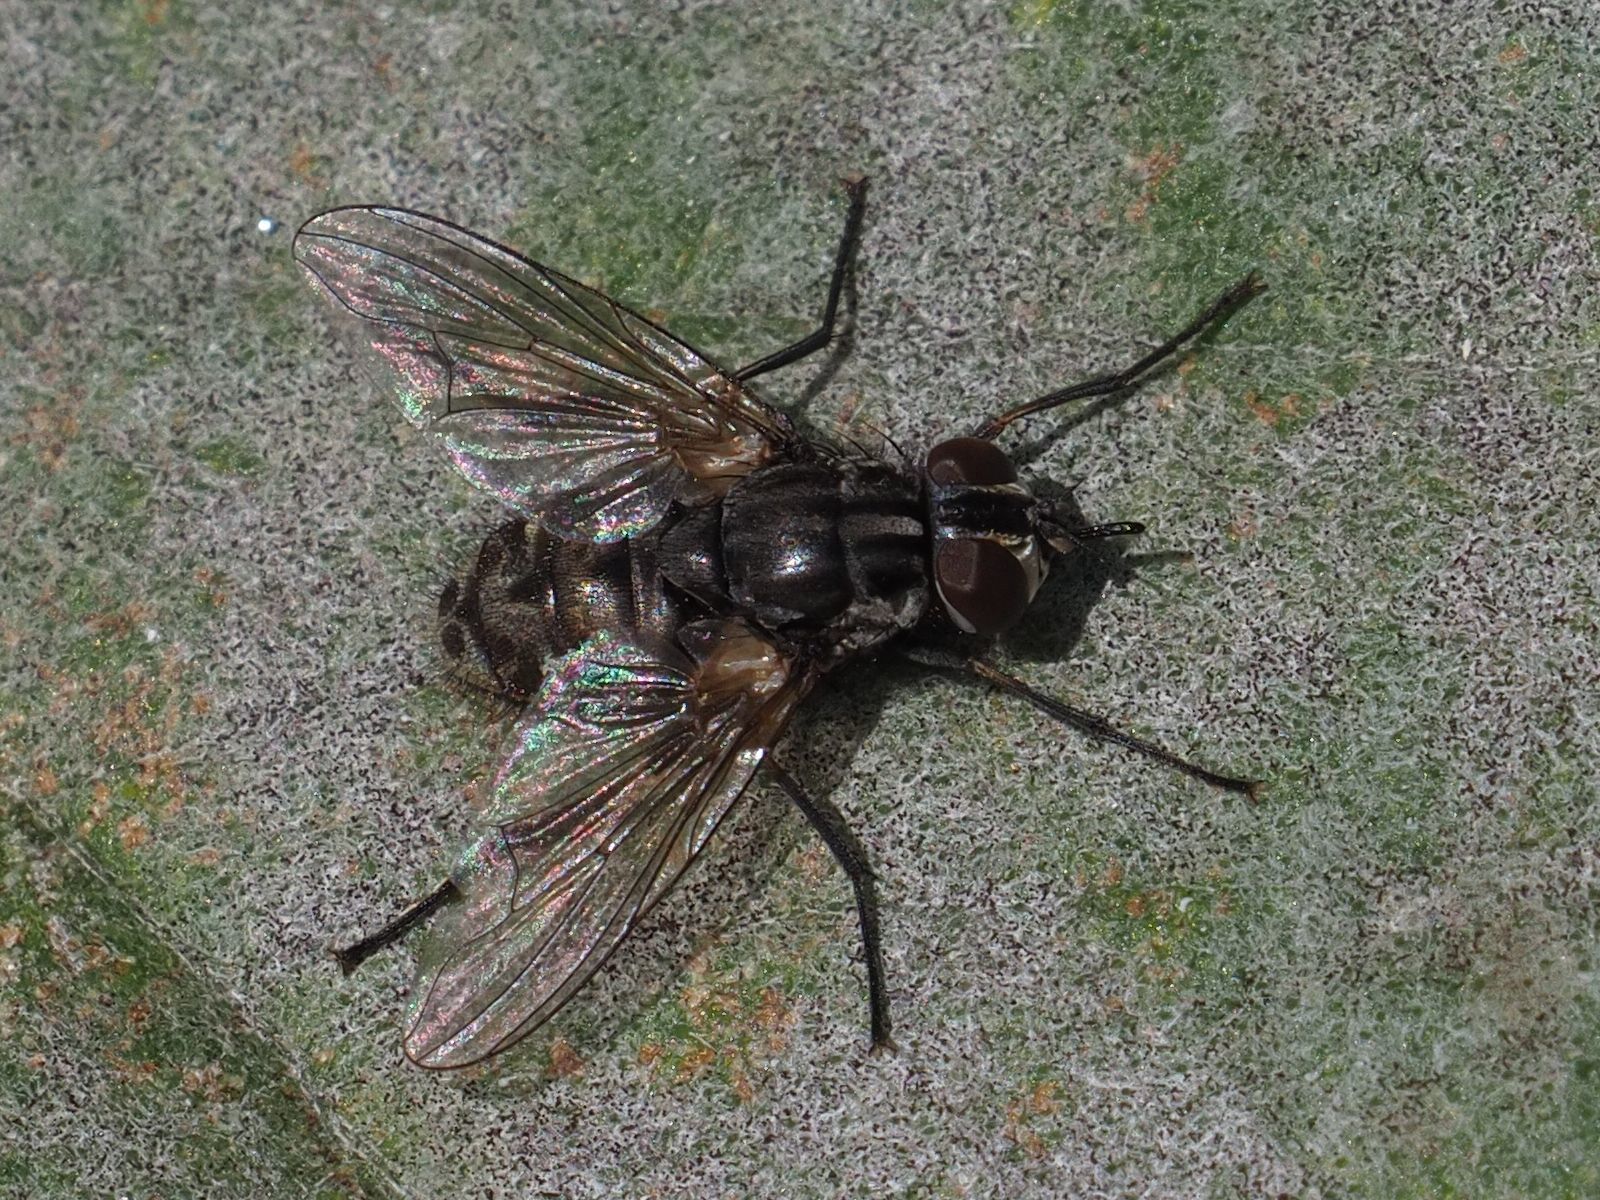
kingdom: Animalia
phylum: Arthropoda
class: Insecta
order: Diptera
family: Muscidae
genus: Stomoxys
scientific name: Stomoxys calcitrans
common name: Stable fly
